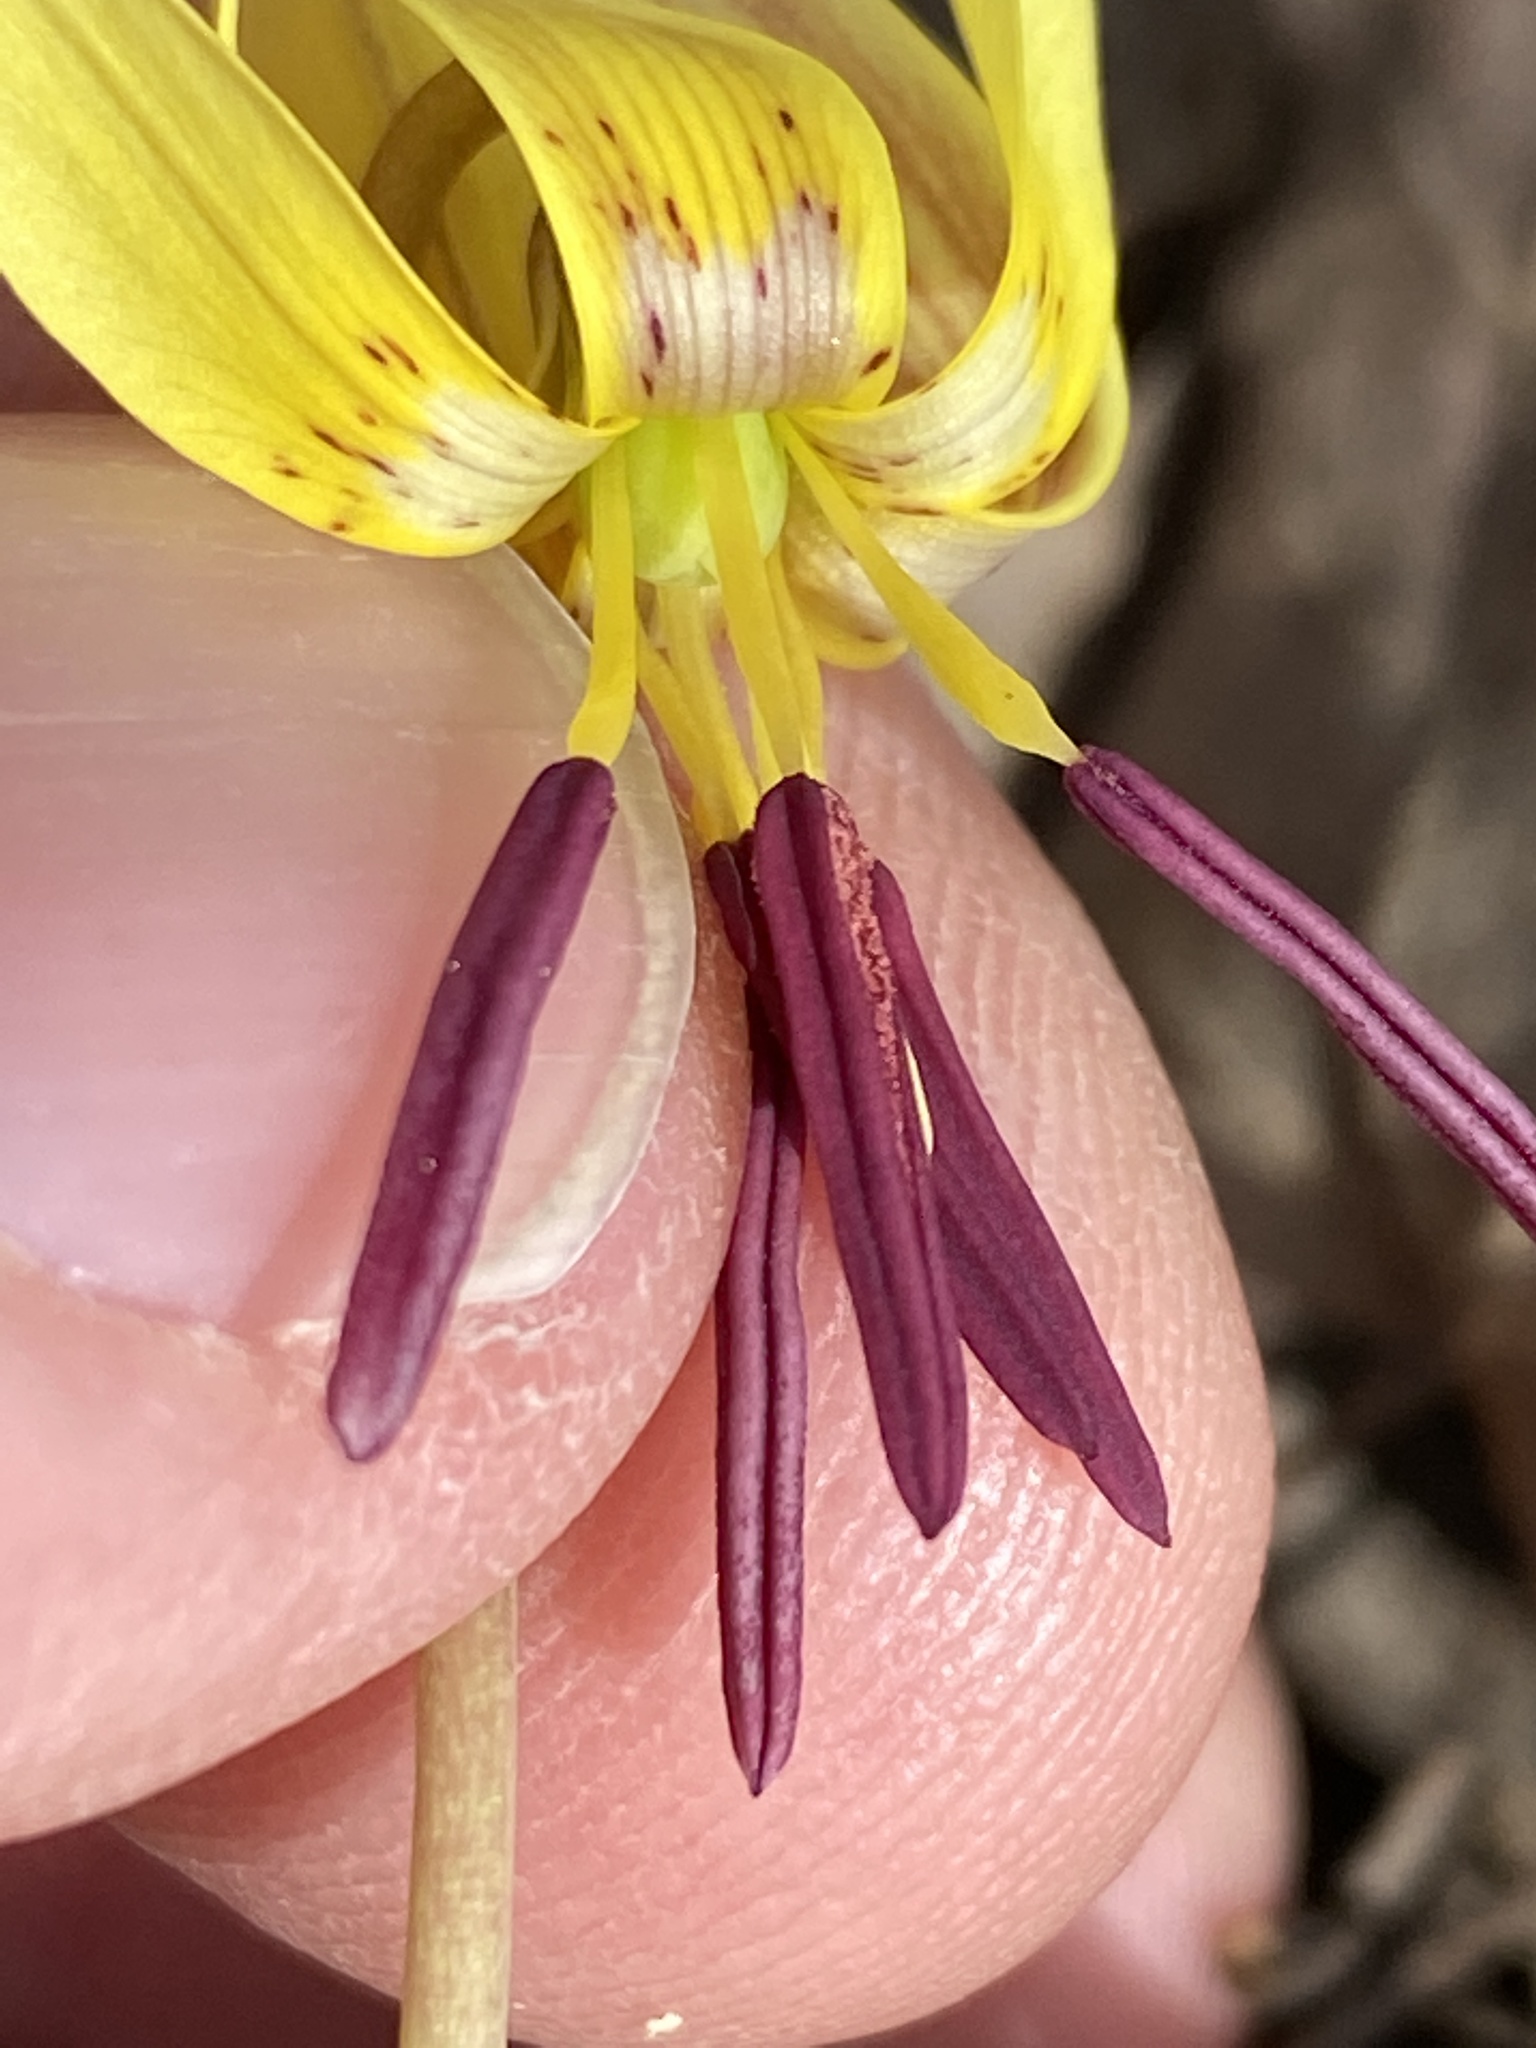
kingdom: Plantae
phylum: Tracheophyta
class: Liliopsida
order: Liliales
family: Liliaceae
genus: Erythronium
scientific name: Erythronium umbilicatum
